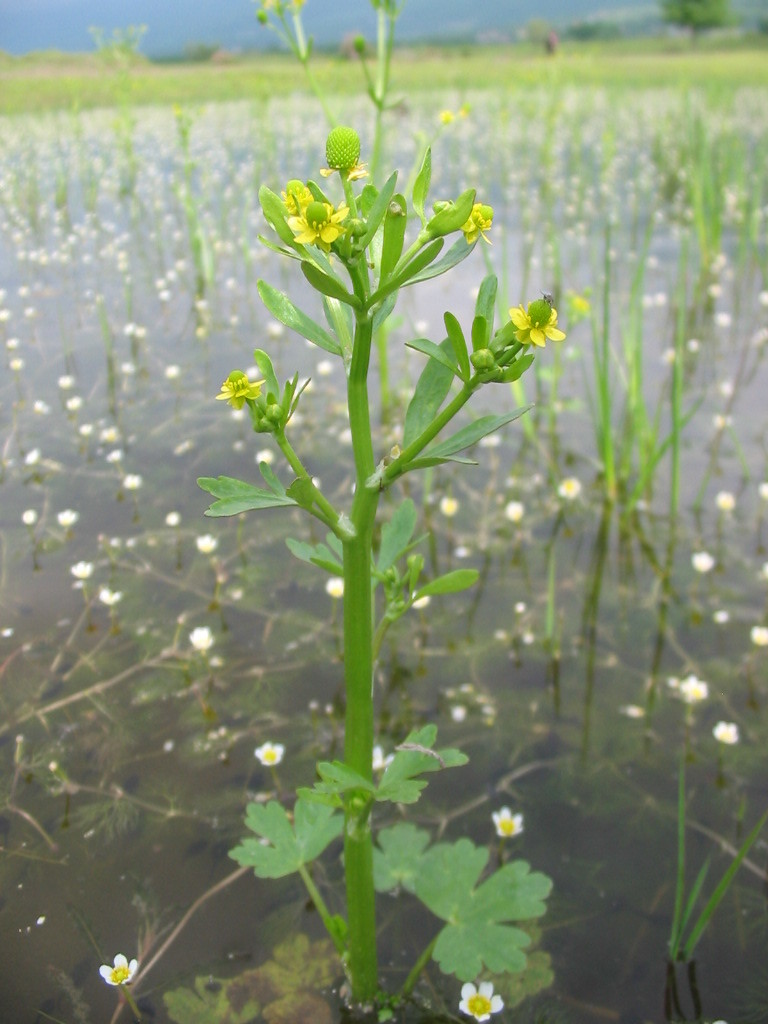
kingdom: Plantae
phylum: Tracheophyta
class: Magnoliopsida
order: Ranunculales
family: Ranunculaceae
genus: Ranunculus
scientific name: Ranunculus sceleratus
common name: Celery-leaved buttercup
